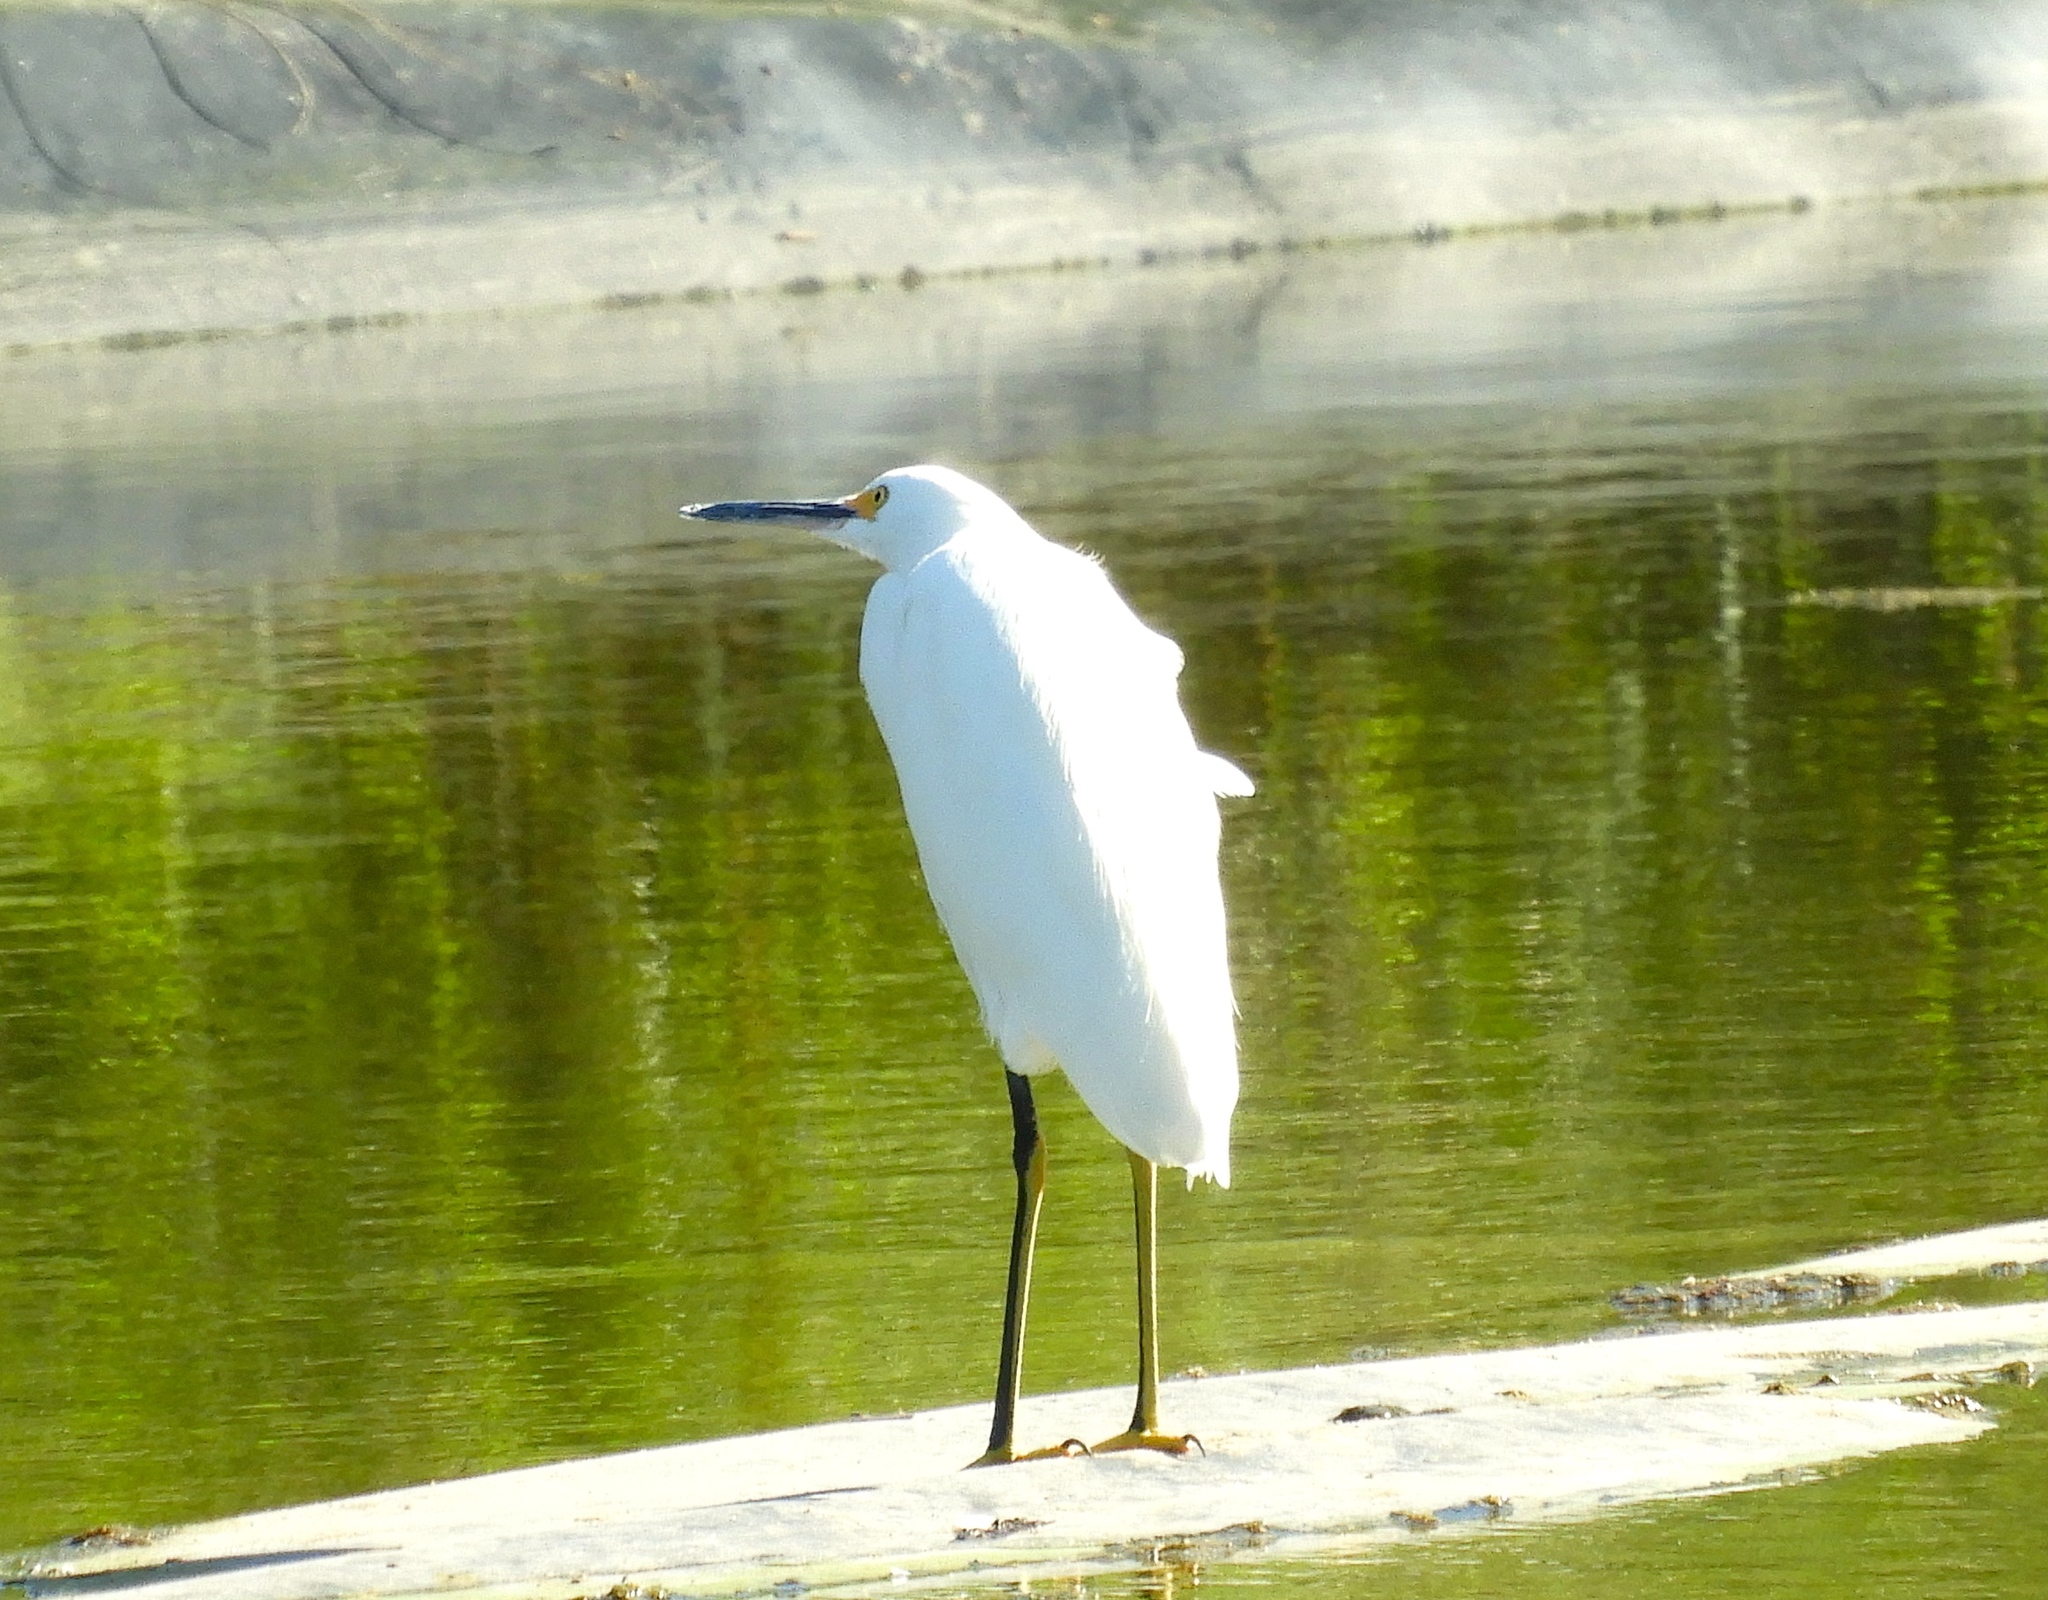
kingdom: Animalia
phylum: Chordata
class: Aves
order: Pelecaniformes
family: Ardeidae
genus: Egretta
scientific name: Egretta thula
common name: Snowy egret
